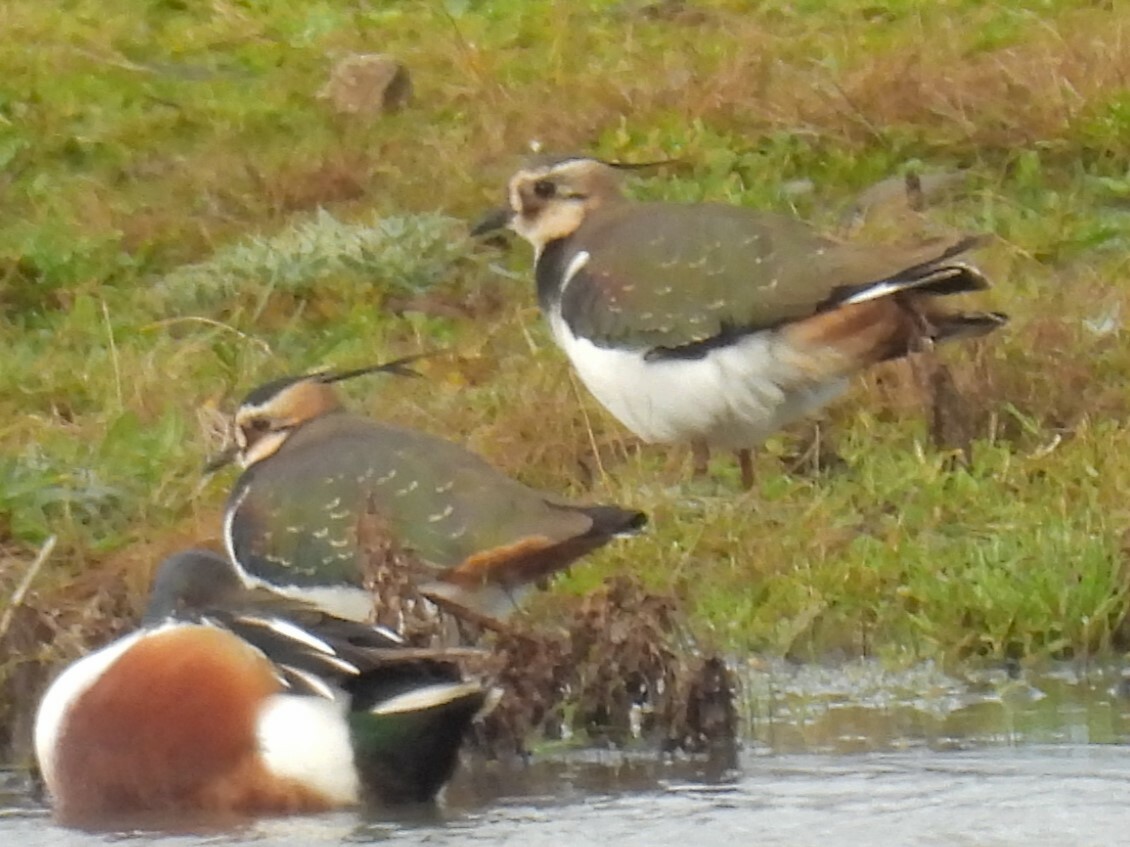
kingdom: Animalia
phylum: Chordata
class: Aves
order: Charadriiformes
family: Charadriidae
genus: Vanellus
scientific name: Vanellus vanellus
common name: Northern lapwing
